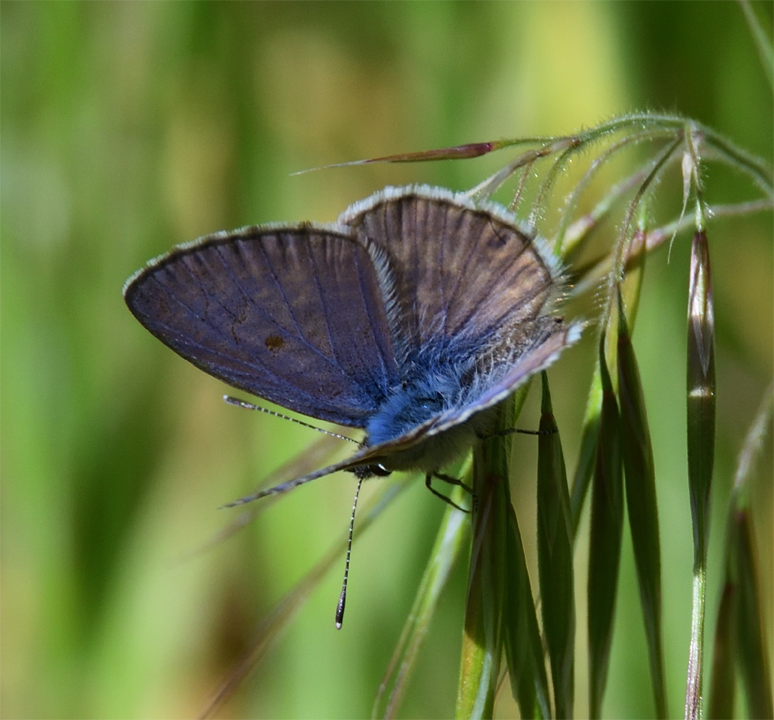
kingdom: Animalia
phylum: Arthropoda
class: Insecta
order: Lepidoptera
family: Lycaenidae
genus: Leptotes
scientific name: Leptotes marina
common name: Marine blue
